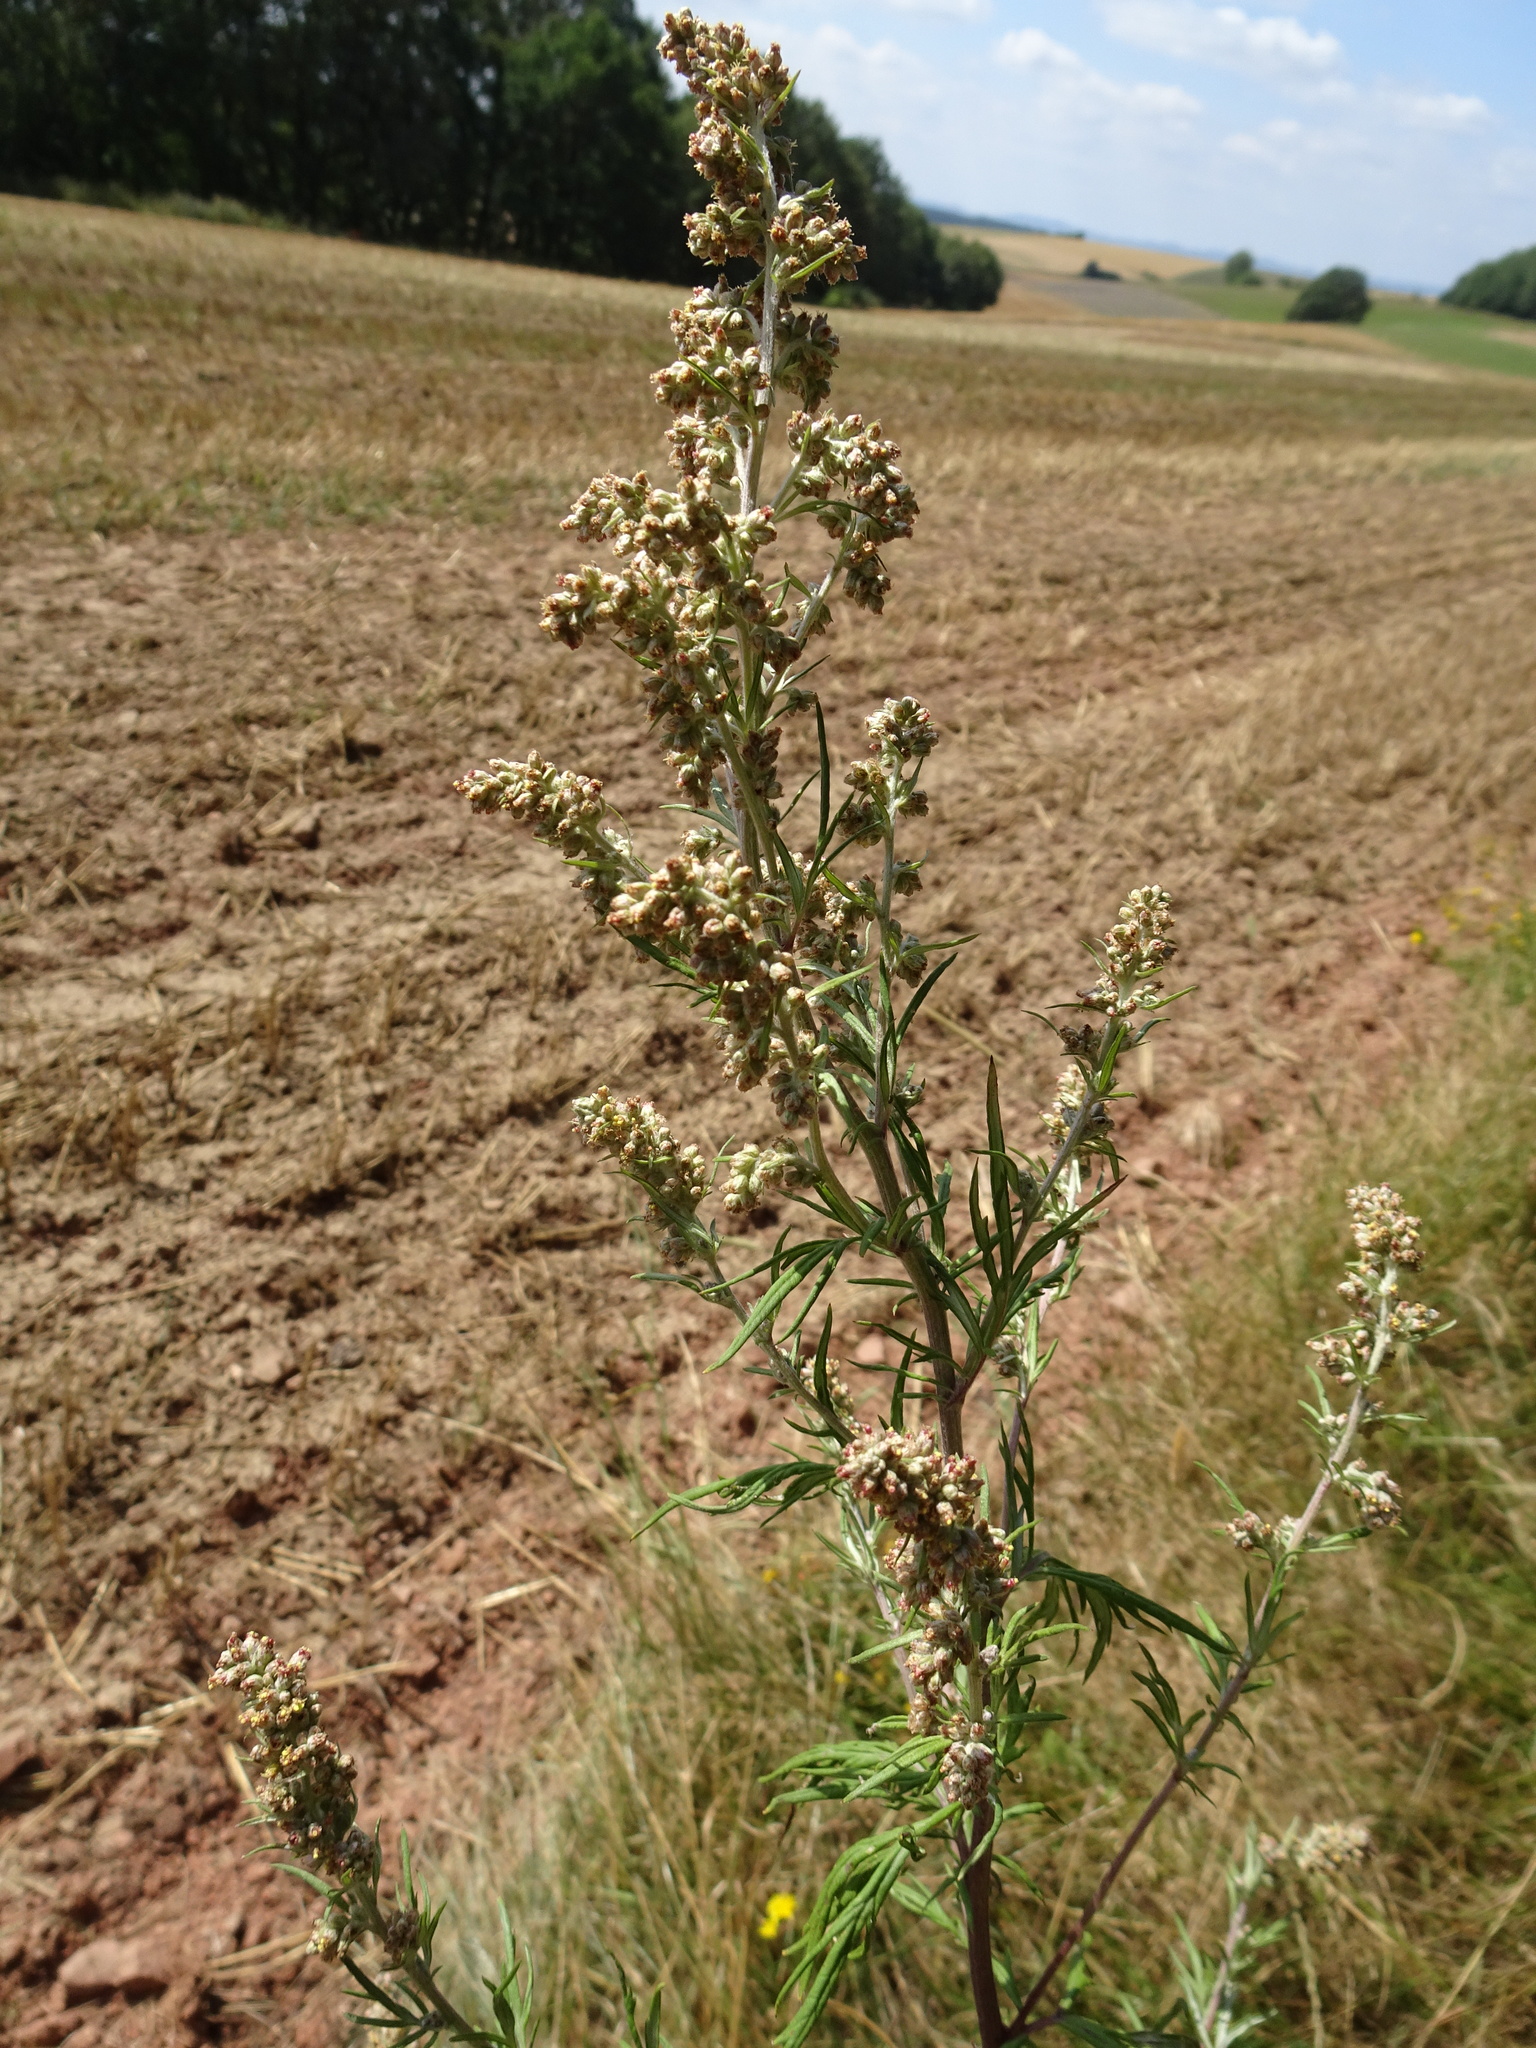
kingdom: Plantae
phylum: Tracheophyta
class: Magnoliopsida
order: Asterales
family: Asteraceae
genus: Artemisia
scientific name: Artemisia vulgaris
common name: Mugwort
